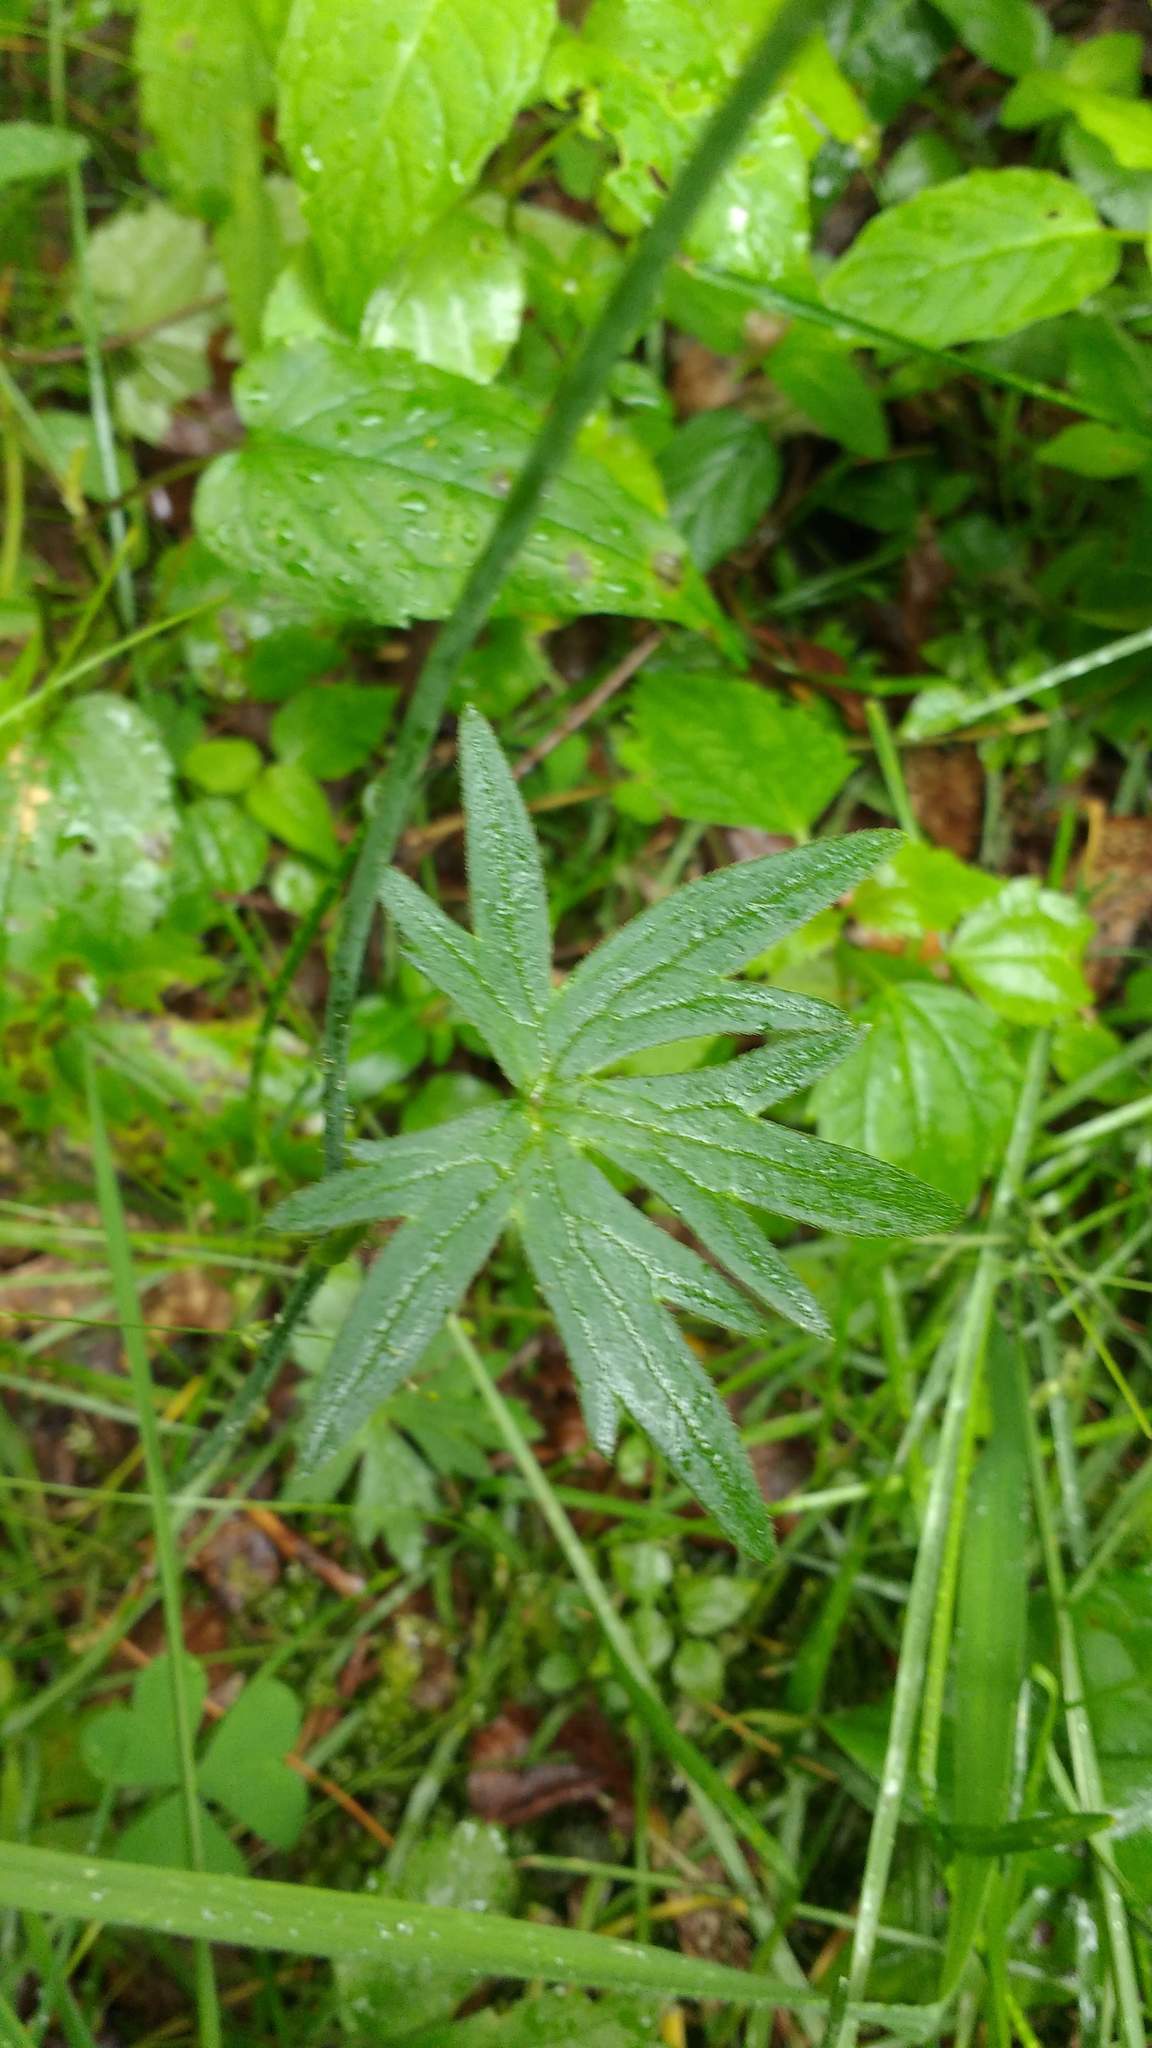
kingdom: Plantae
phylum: Tracheophyta
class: Magnoliopsida
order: Ranunculales
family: Ranunculaceae
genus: Ranunculus
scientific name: Ranunculus acris
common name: Meadow buttercup
